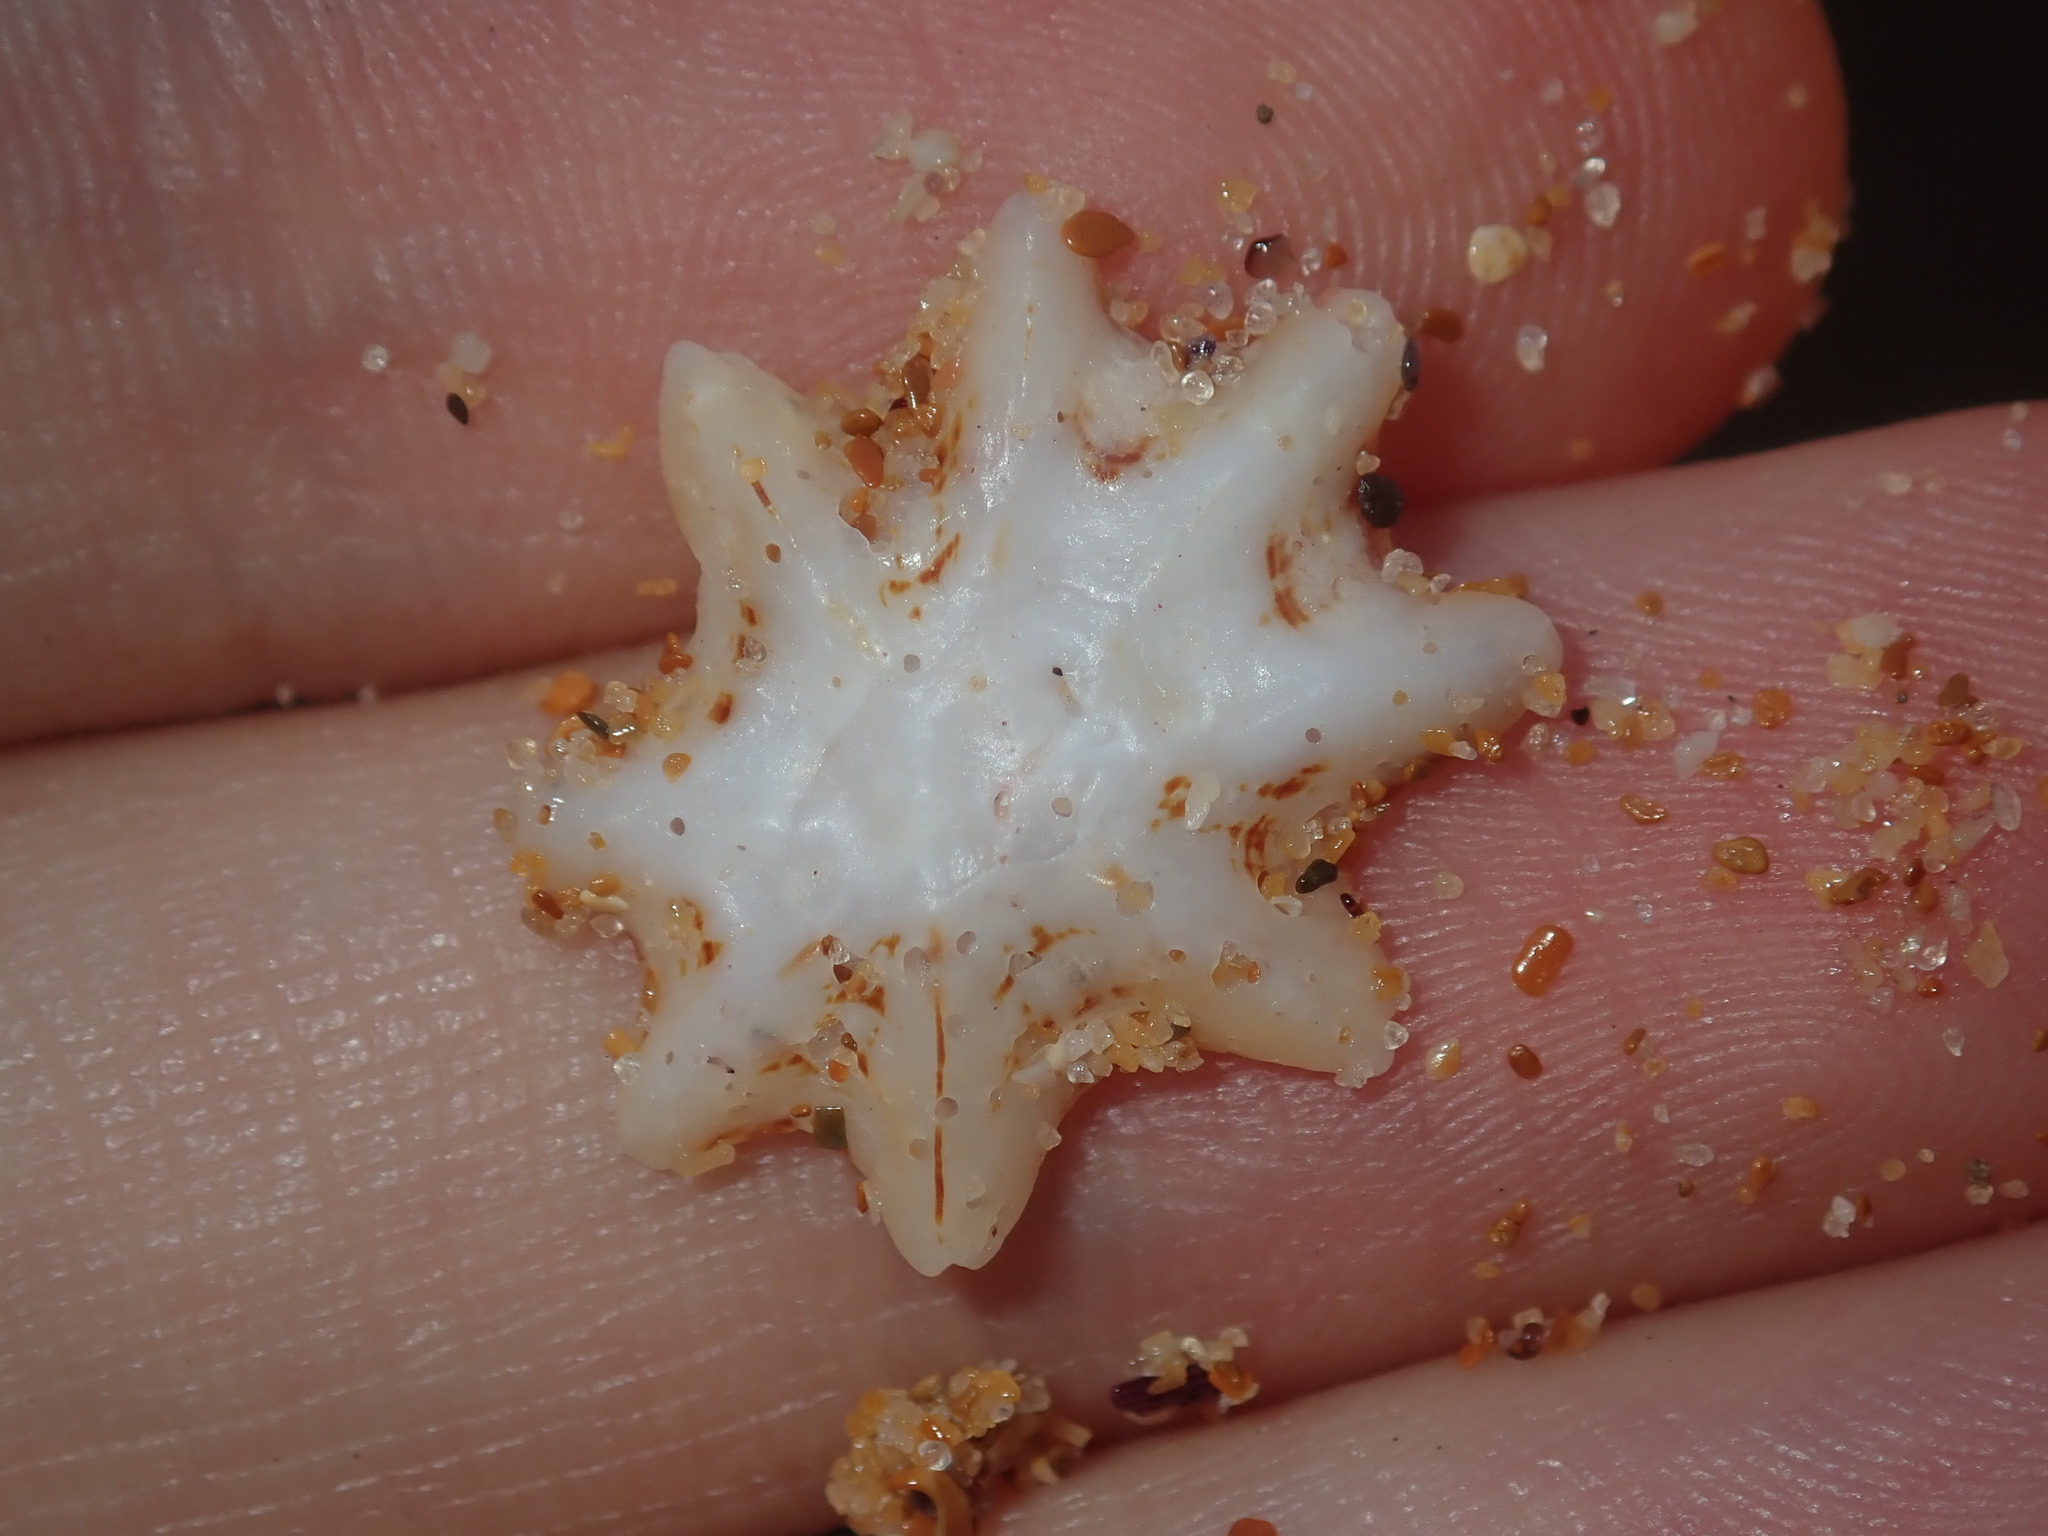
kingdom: Animalia
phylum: Mollusca
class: Gastropoda
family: Patellidae
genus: Scutellastra
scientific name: Scutellastra chapmani
